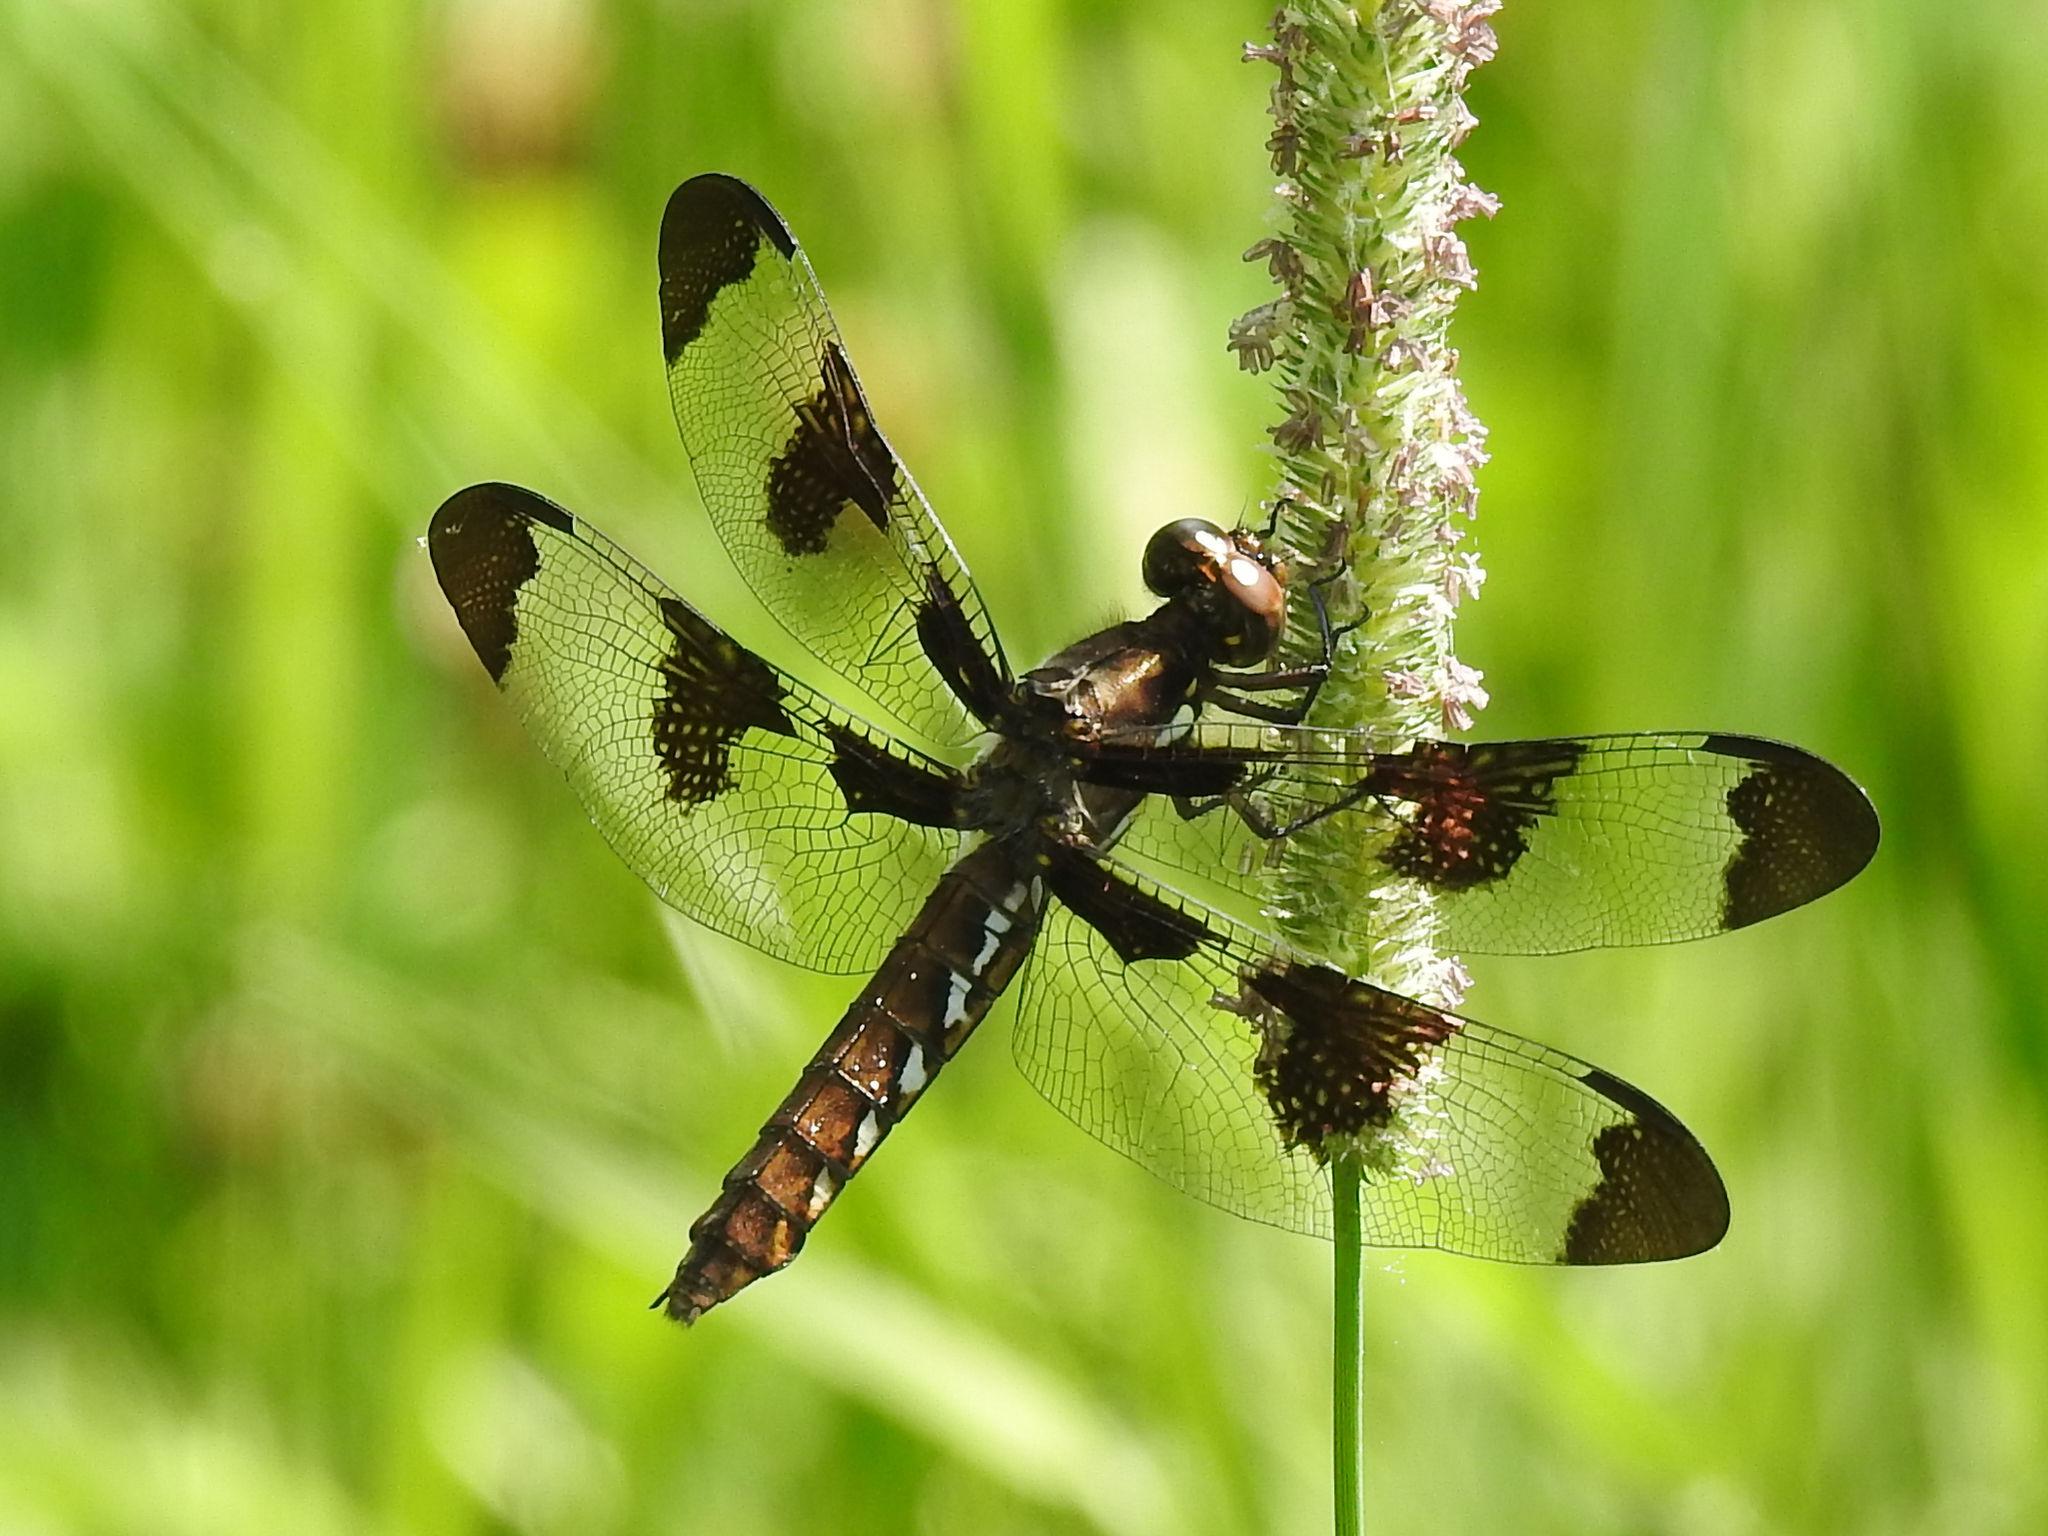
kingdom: Animalia
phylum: Arthropoda
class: Insecta
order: Odonata
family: Libellulidae
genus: Plathemis
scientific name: Plathemis lydia
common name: Common whitetail
